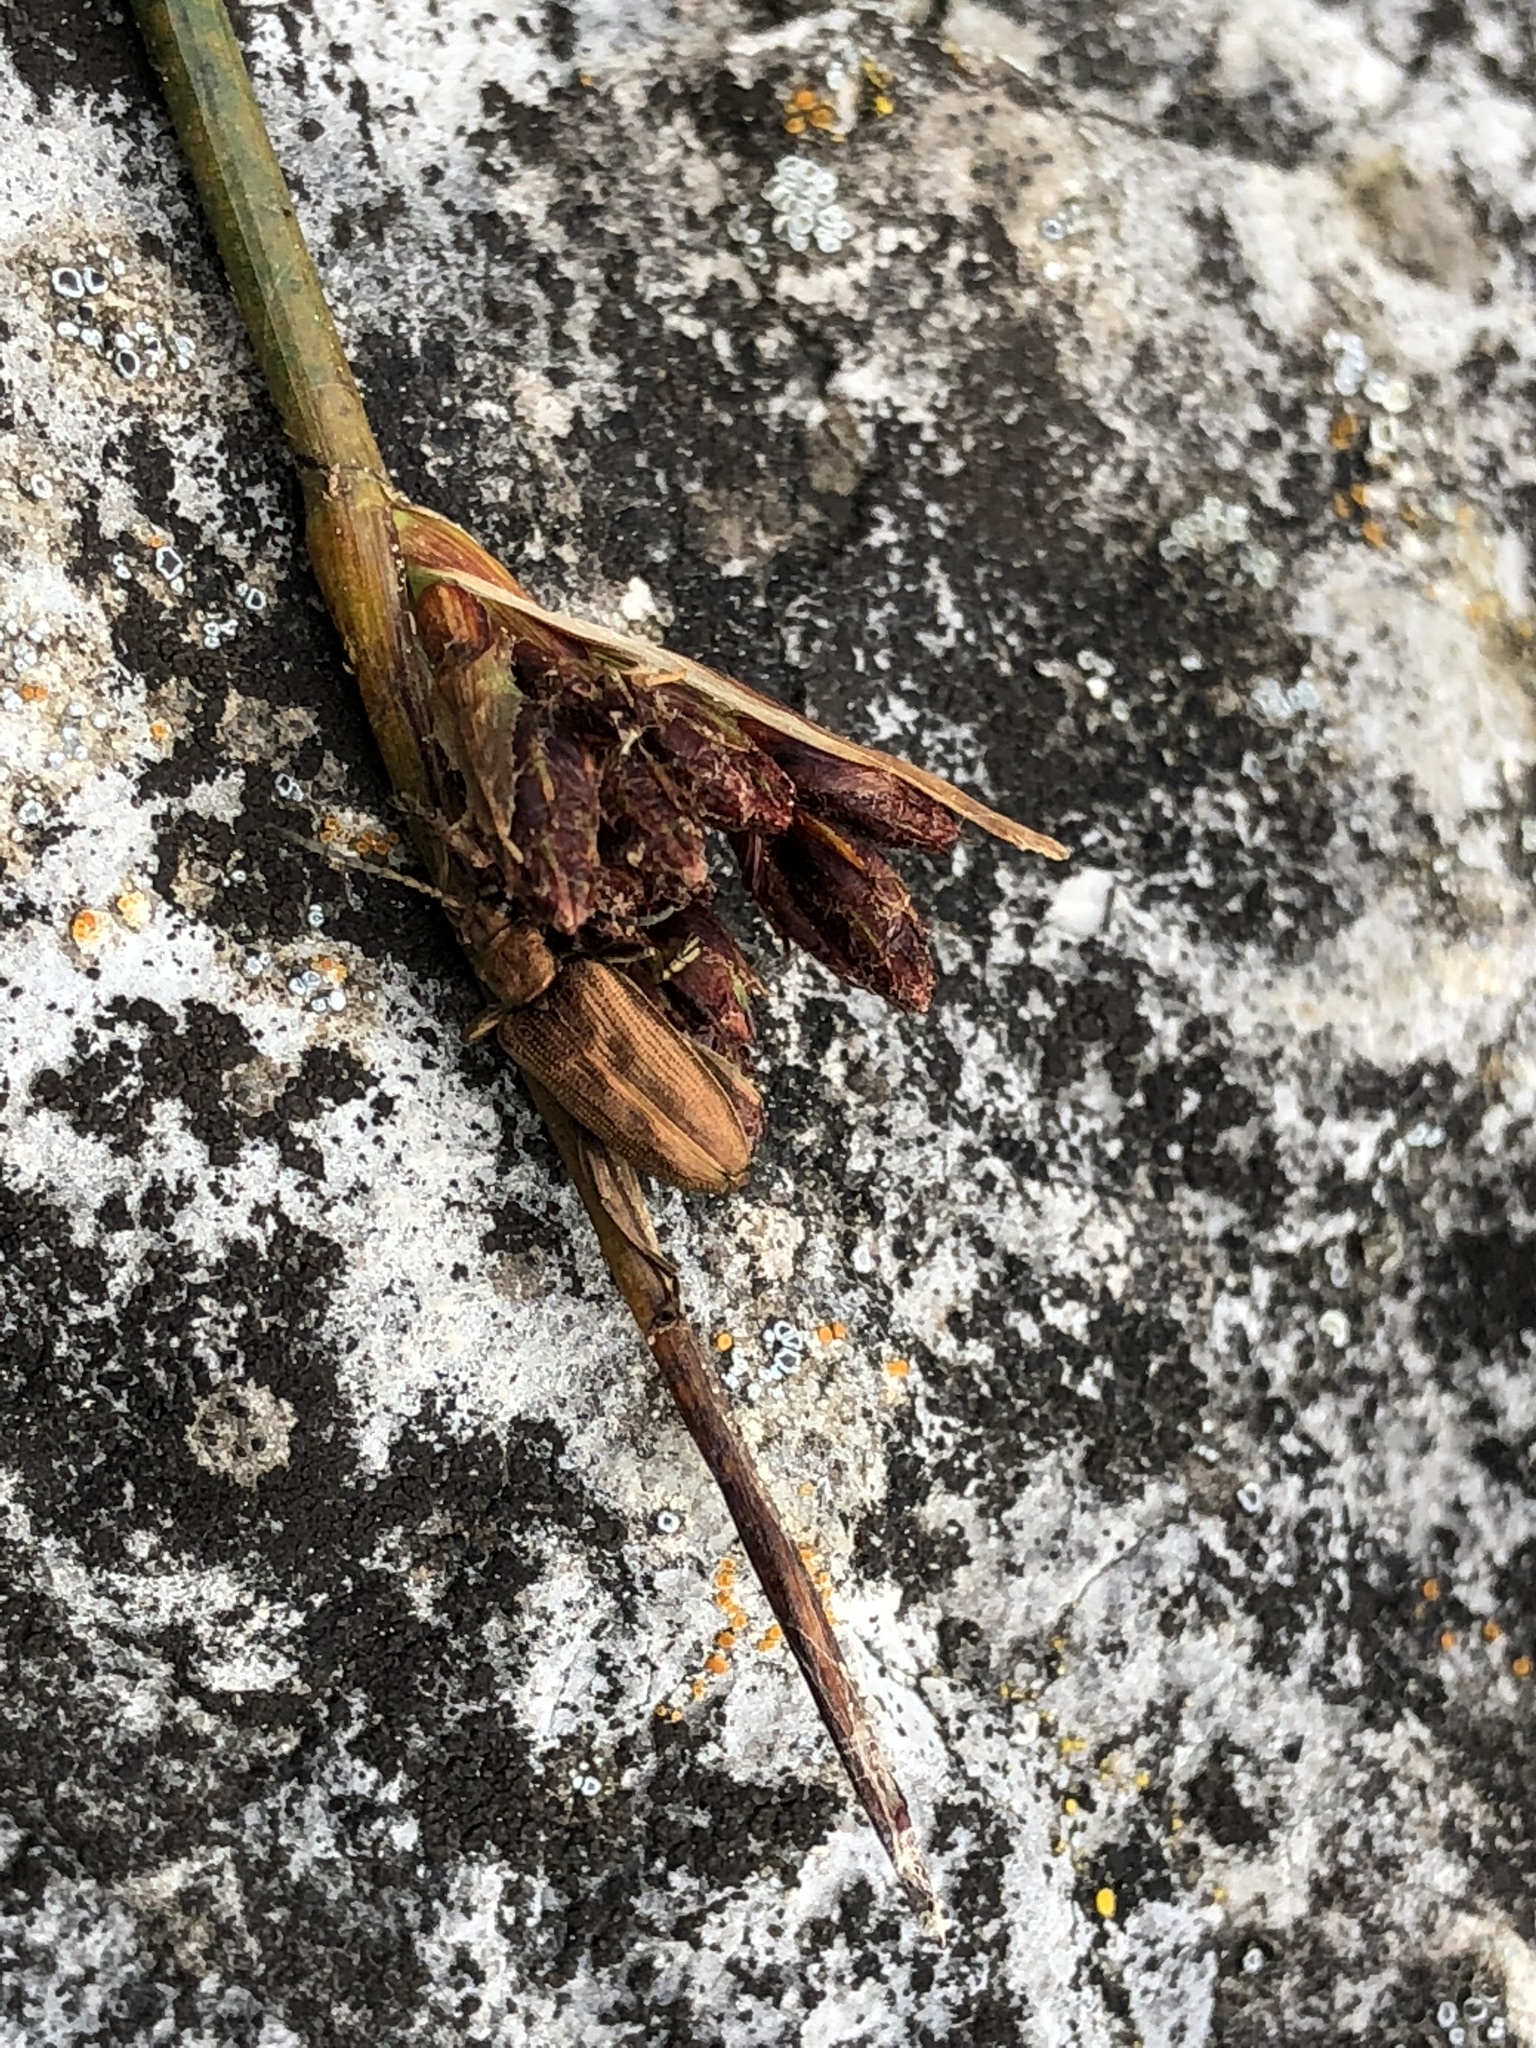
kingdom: Animalia
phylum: Arthropoda
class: Insecta
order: Coleoptera
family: Chrysomelidae
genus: Donacia
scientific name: Donacia impressa
